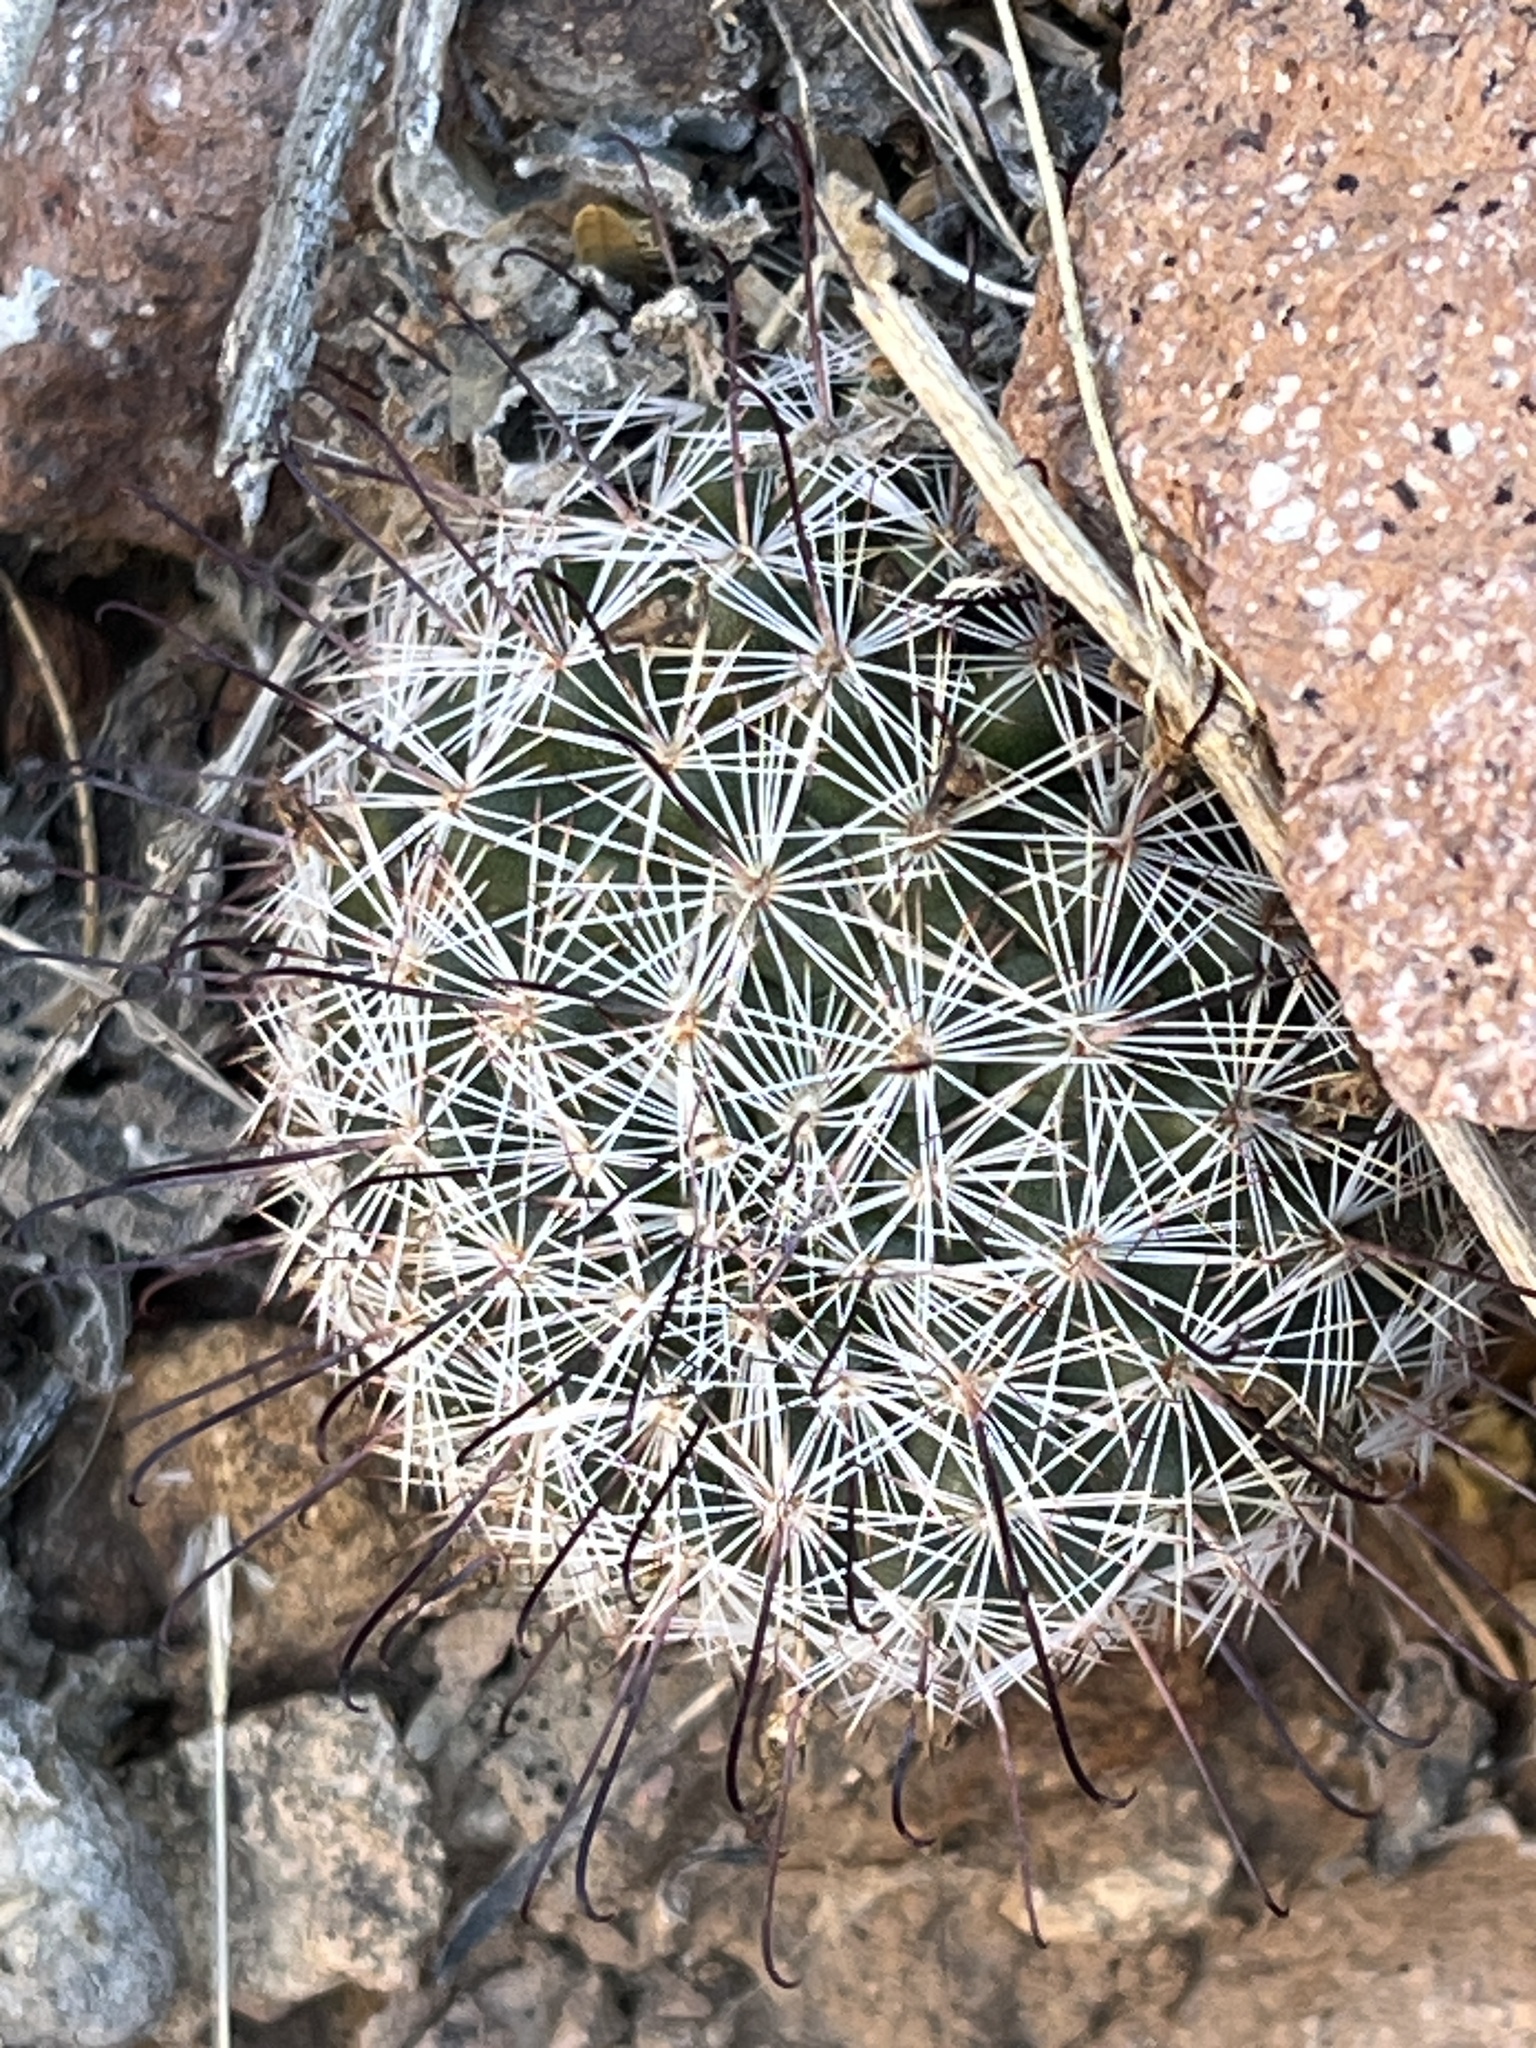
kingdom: Plantae
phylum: Tracheophyta
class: Magnoliopsida
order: Caryophyllales
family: Cactaceae
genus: Cochemiea
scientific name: Cochemiea grahamii
